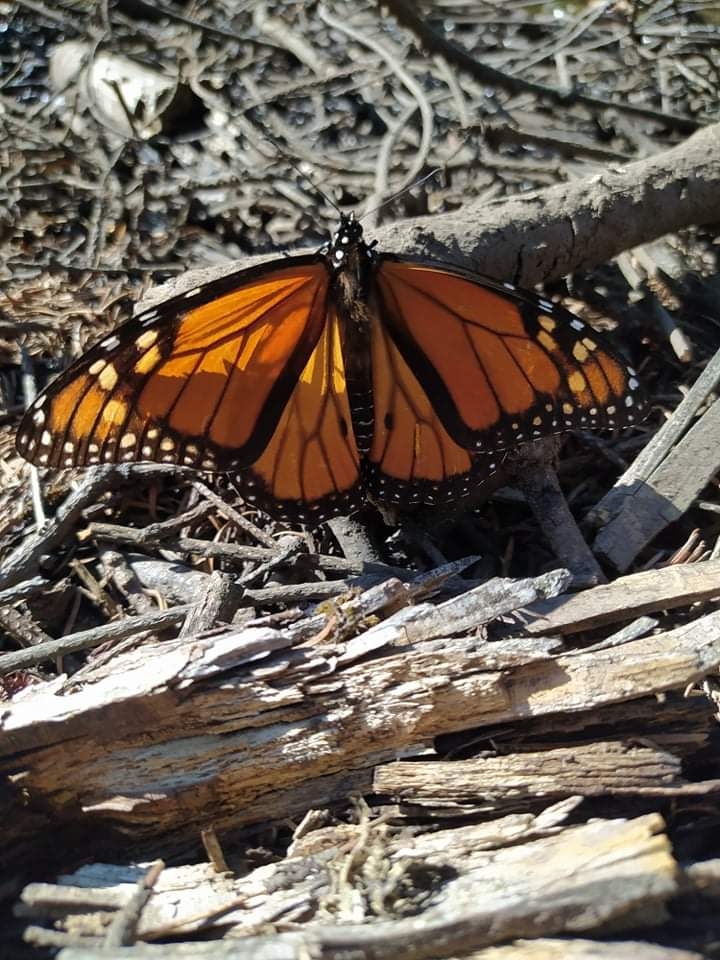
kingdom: Animalia
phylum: Arthropoda
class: Insecta
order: Lepidoptera
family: Nymphalidae
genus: Danaus
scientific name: Danaus plexippus
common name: Monarch
